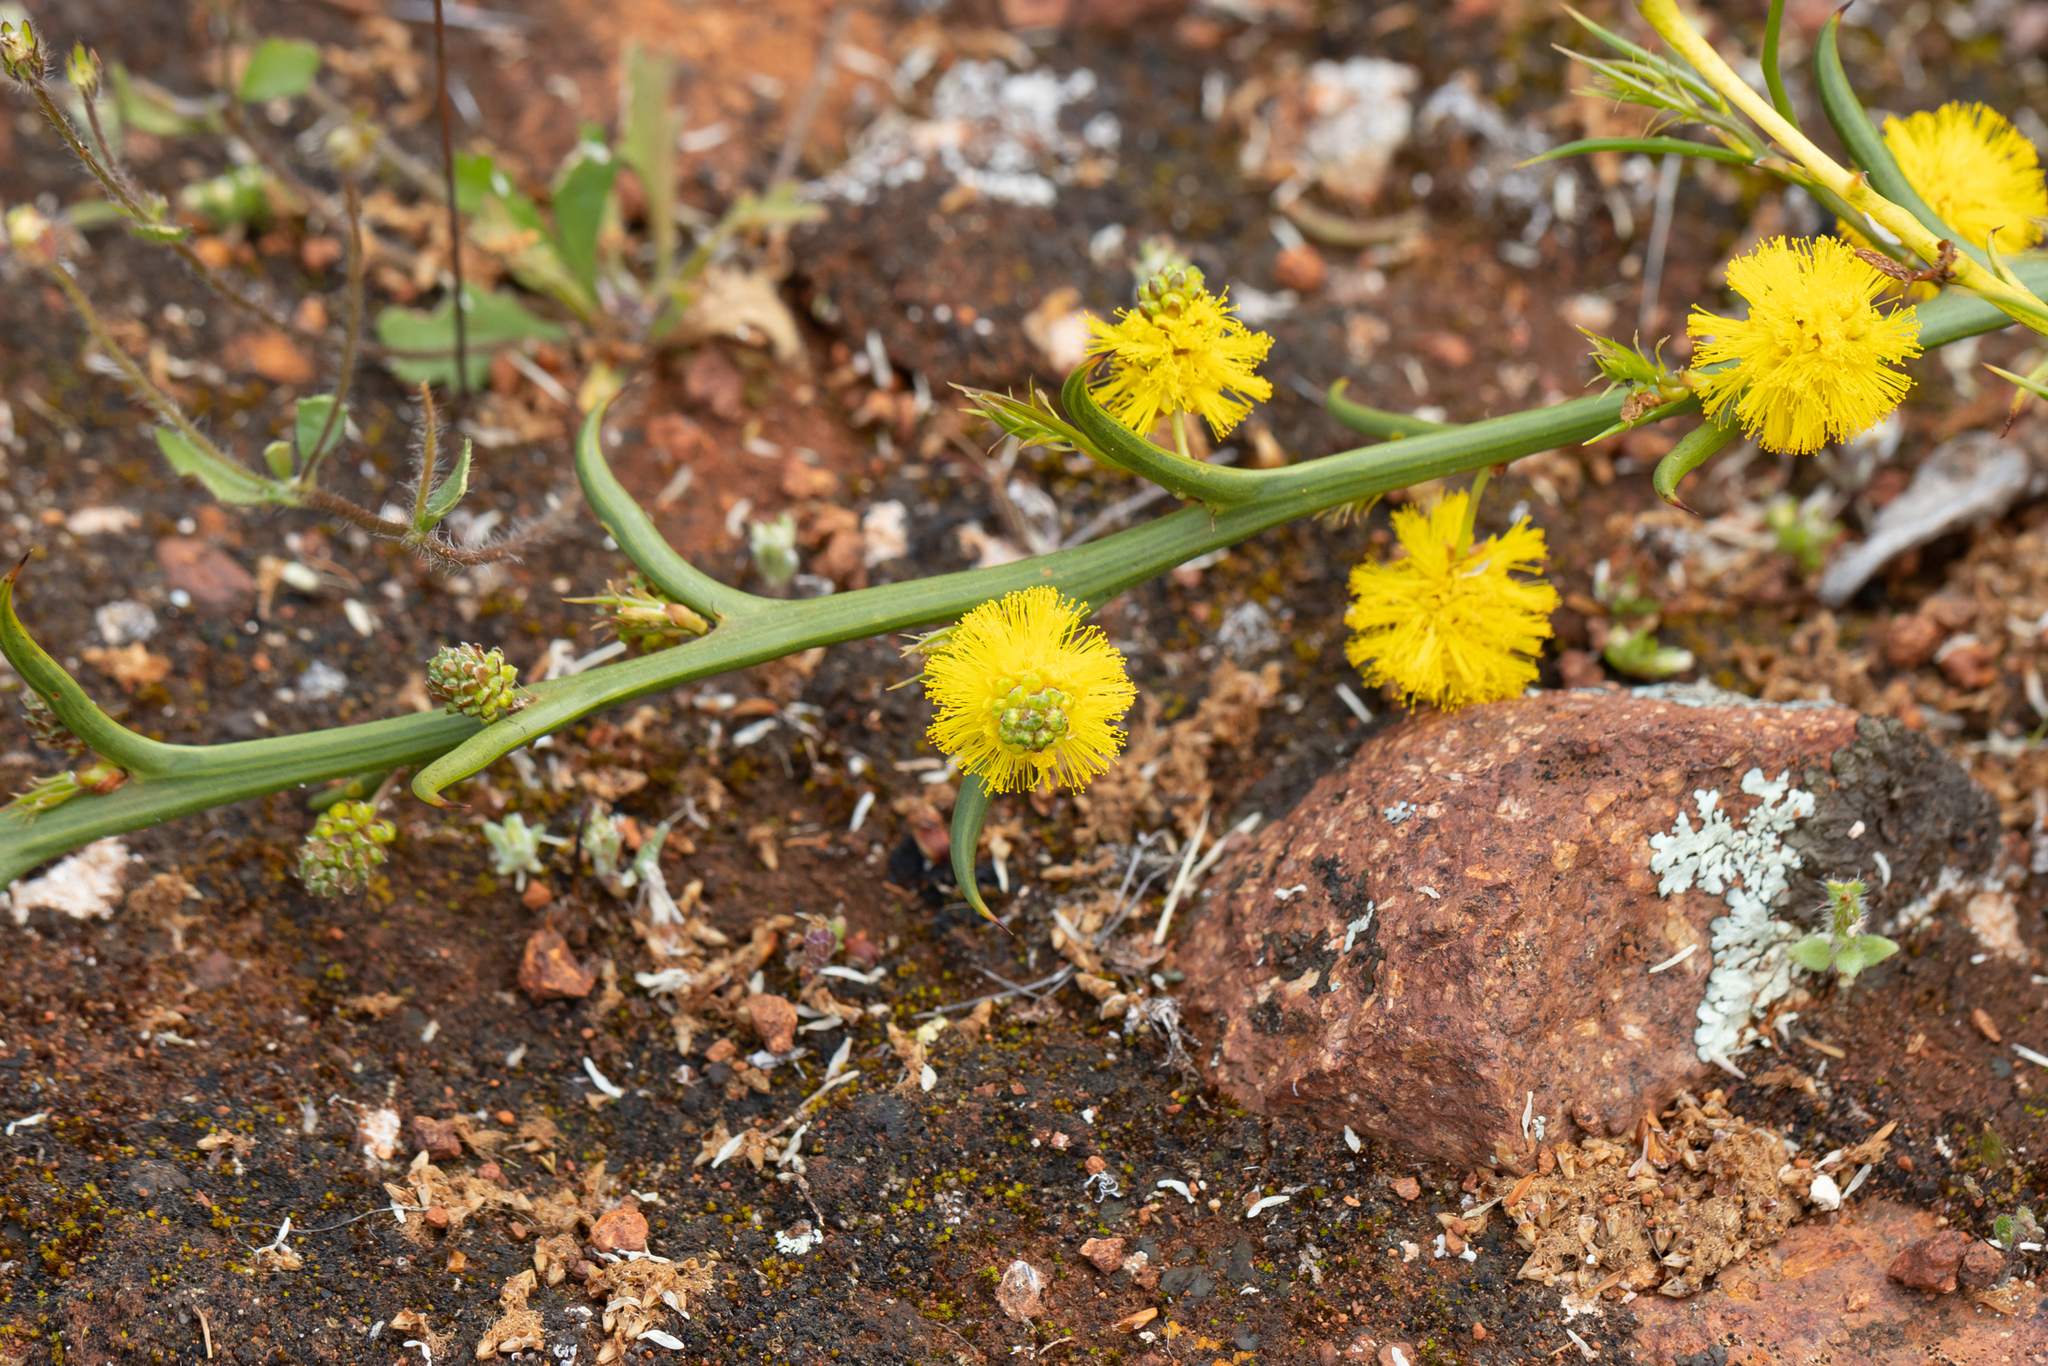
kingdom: Plantae
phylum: Tracheophyta
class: Magnoliopsida
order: Fabales
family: Fabaceae
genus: Acacia
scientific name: Acacia continua
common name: Thorn wattle
